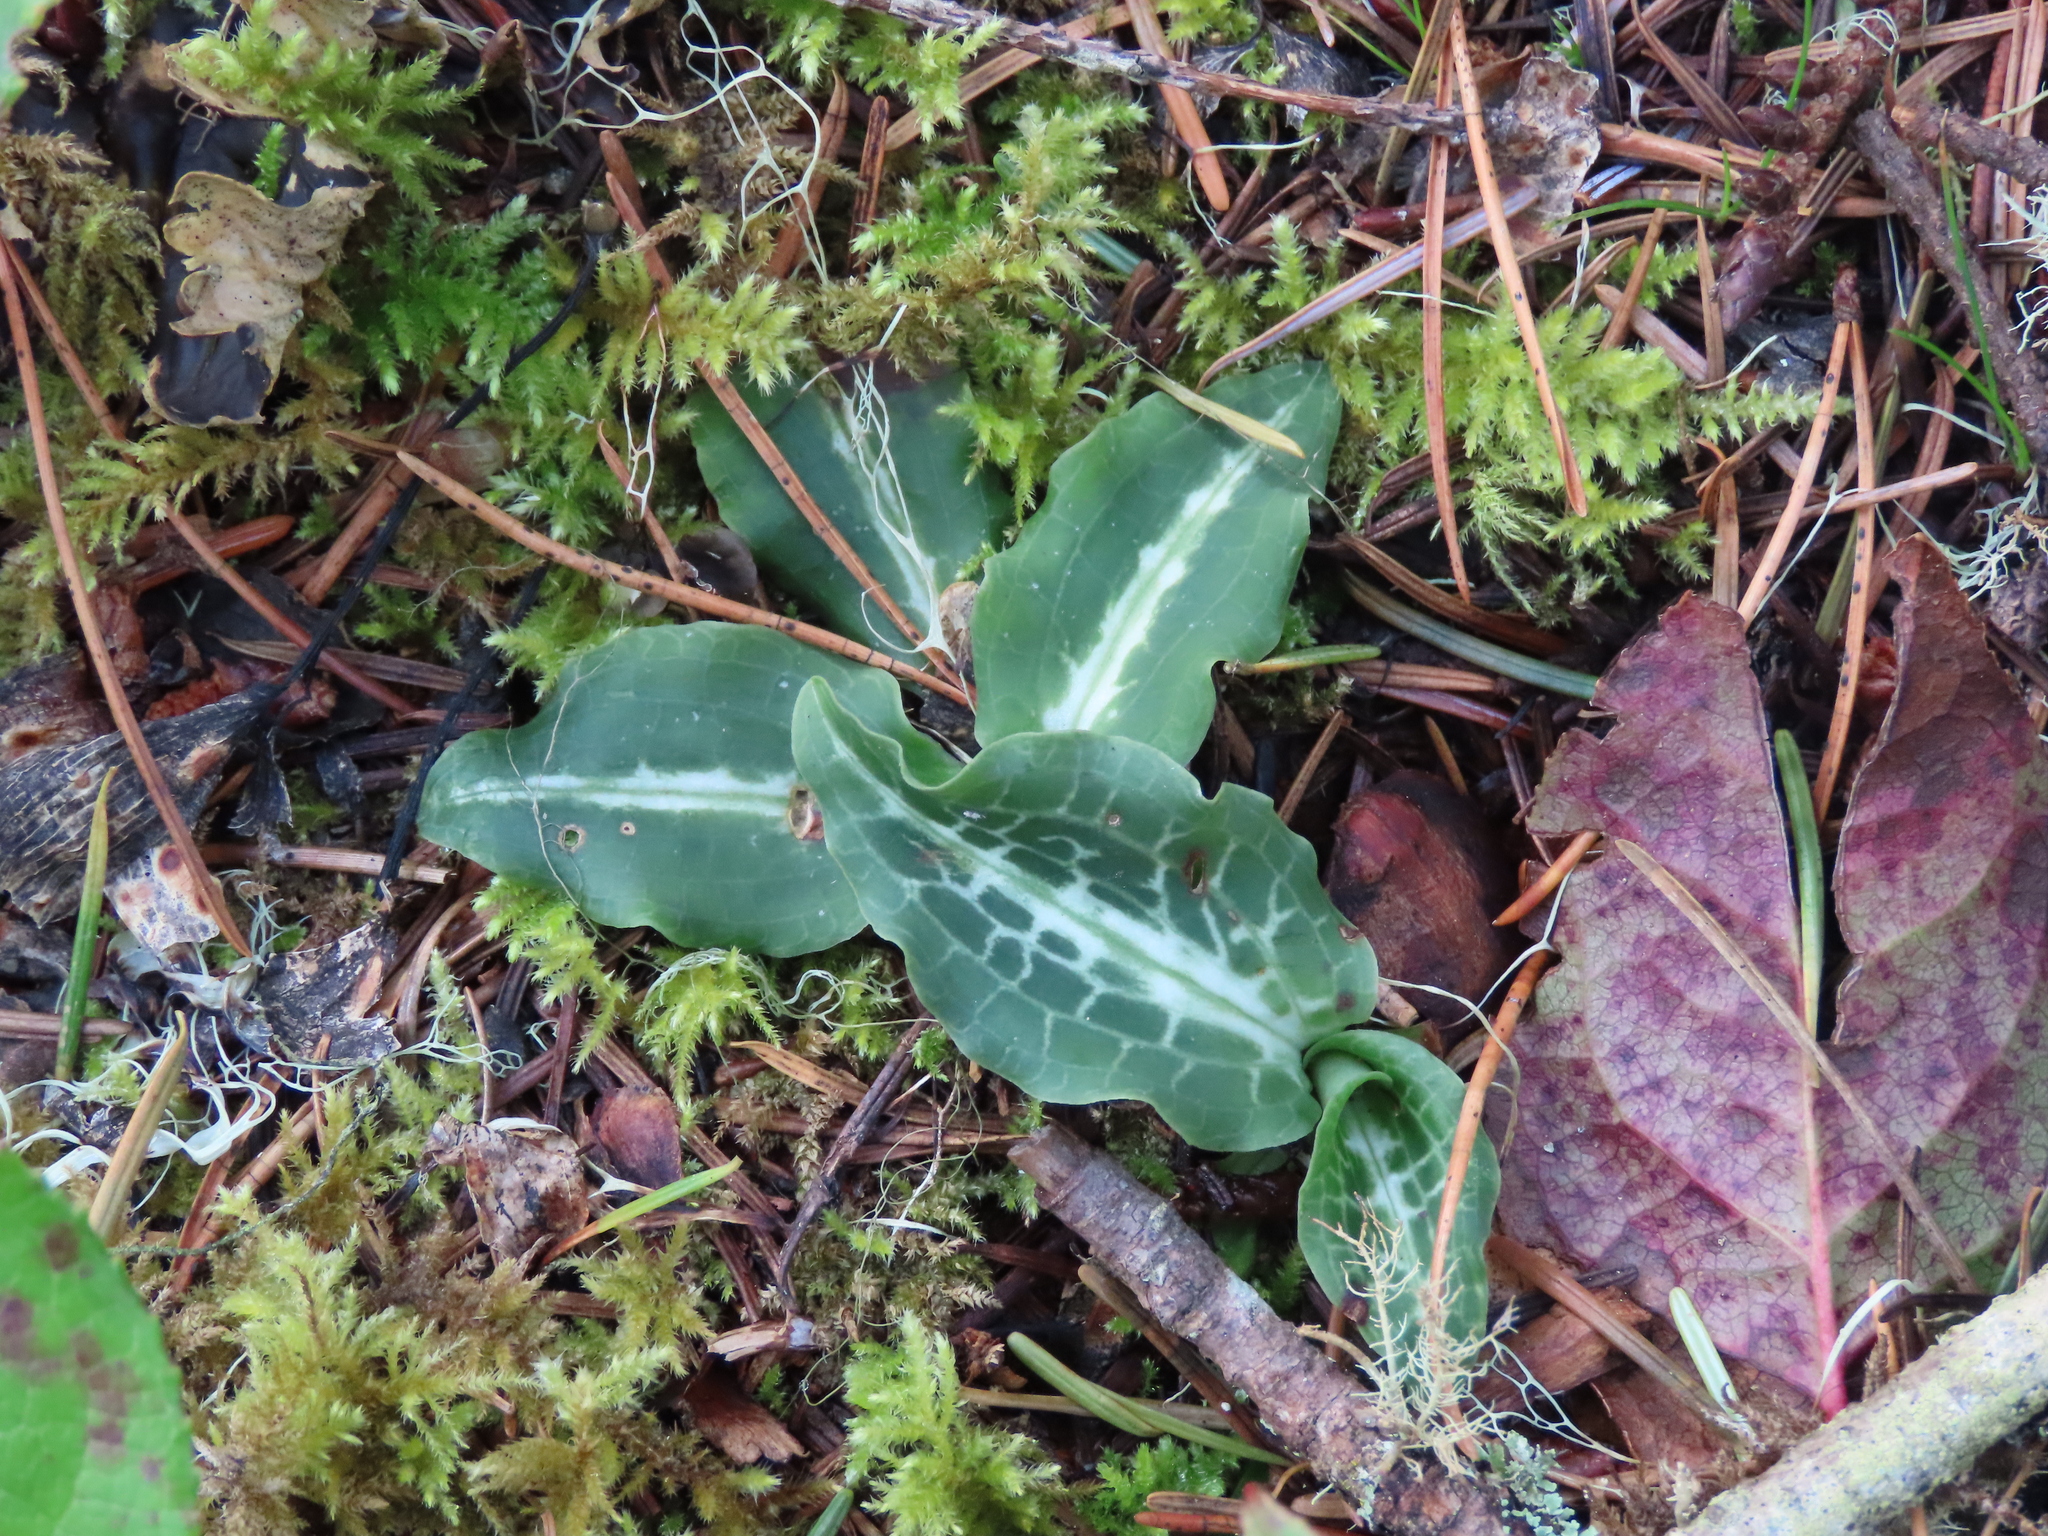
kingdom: Plantae
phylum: Tracheophyta
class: Liliopsida
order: Asparagales
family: Orchidaceae
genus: Goodyera
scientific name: Goodyera oblongifolia
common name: Giant rattlesnake-plantain
